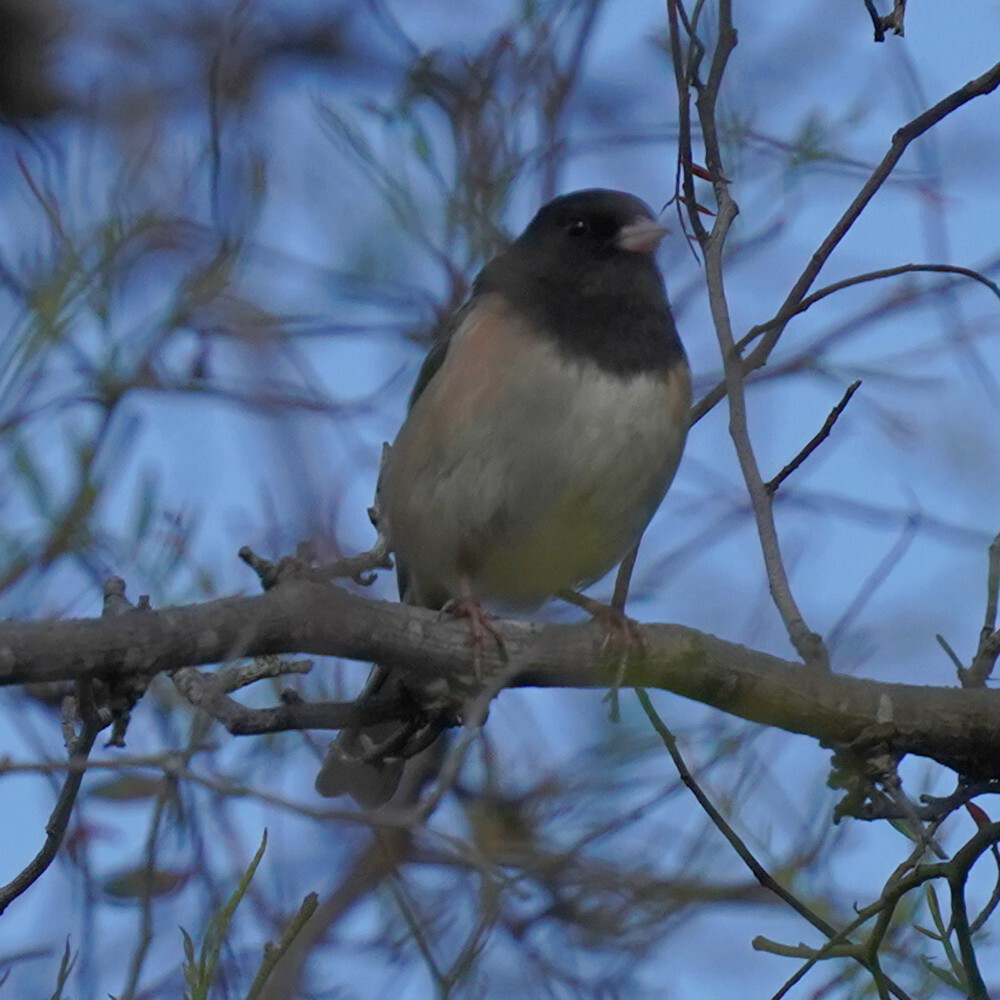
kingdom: Animalia
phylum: Chordata
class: Aves
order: Passeriformes
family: Passerellidae
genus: Junco
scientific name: Junco hyemalis
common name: Dark-eyed junco
